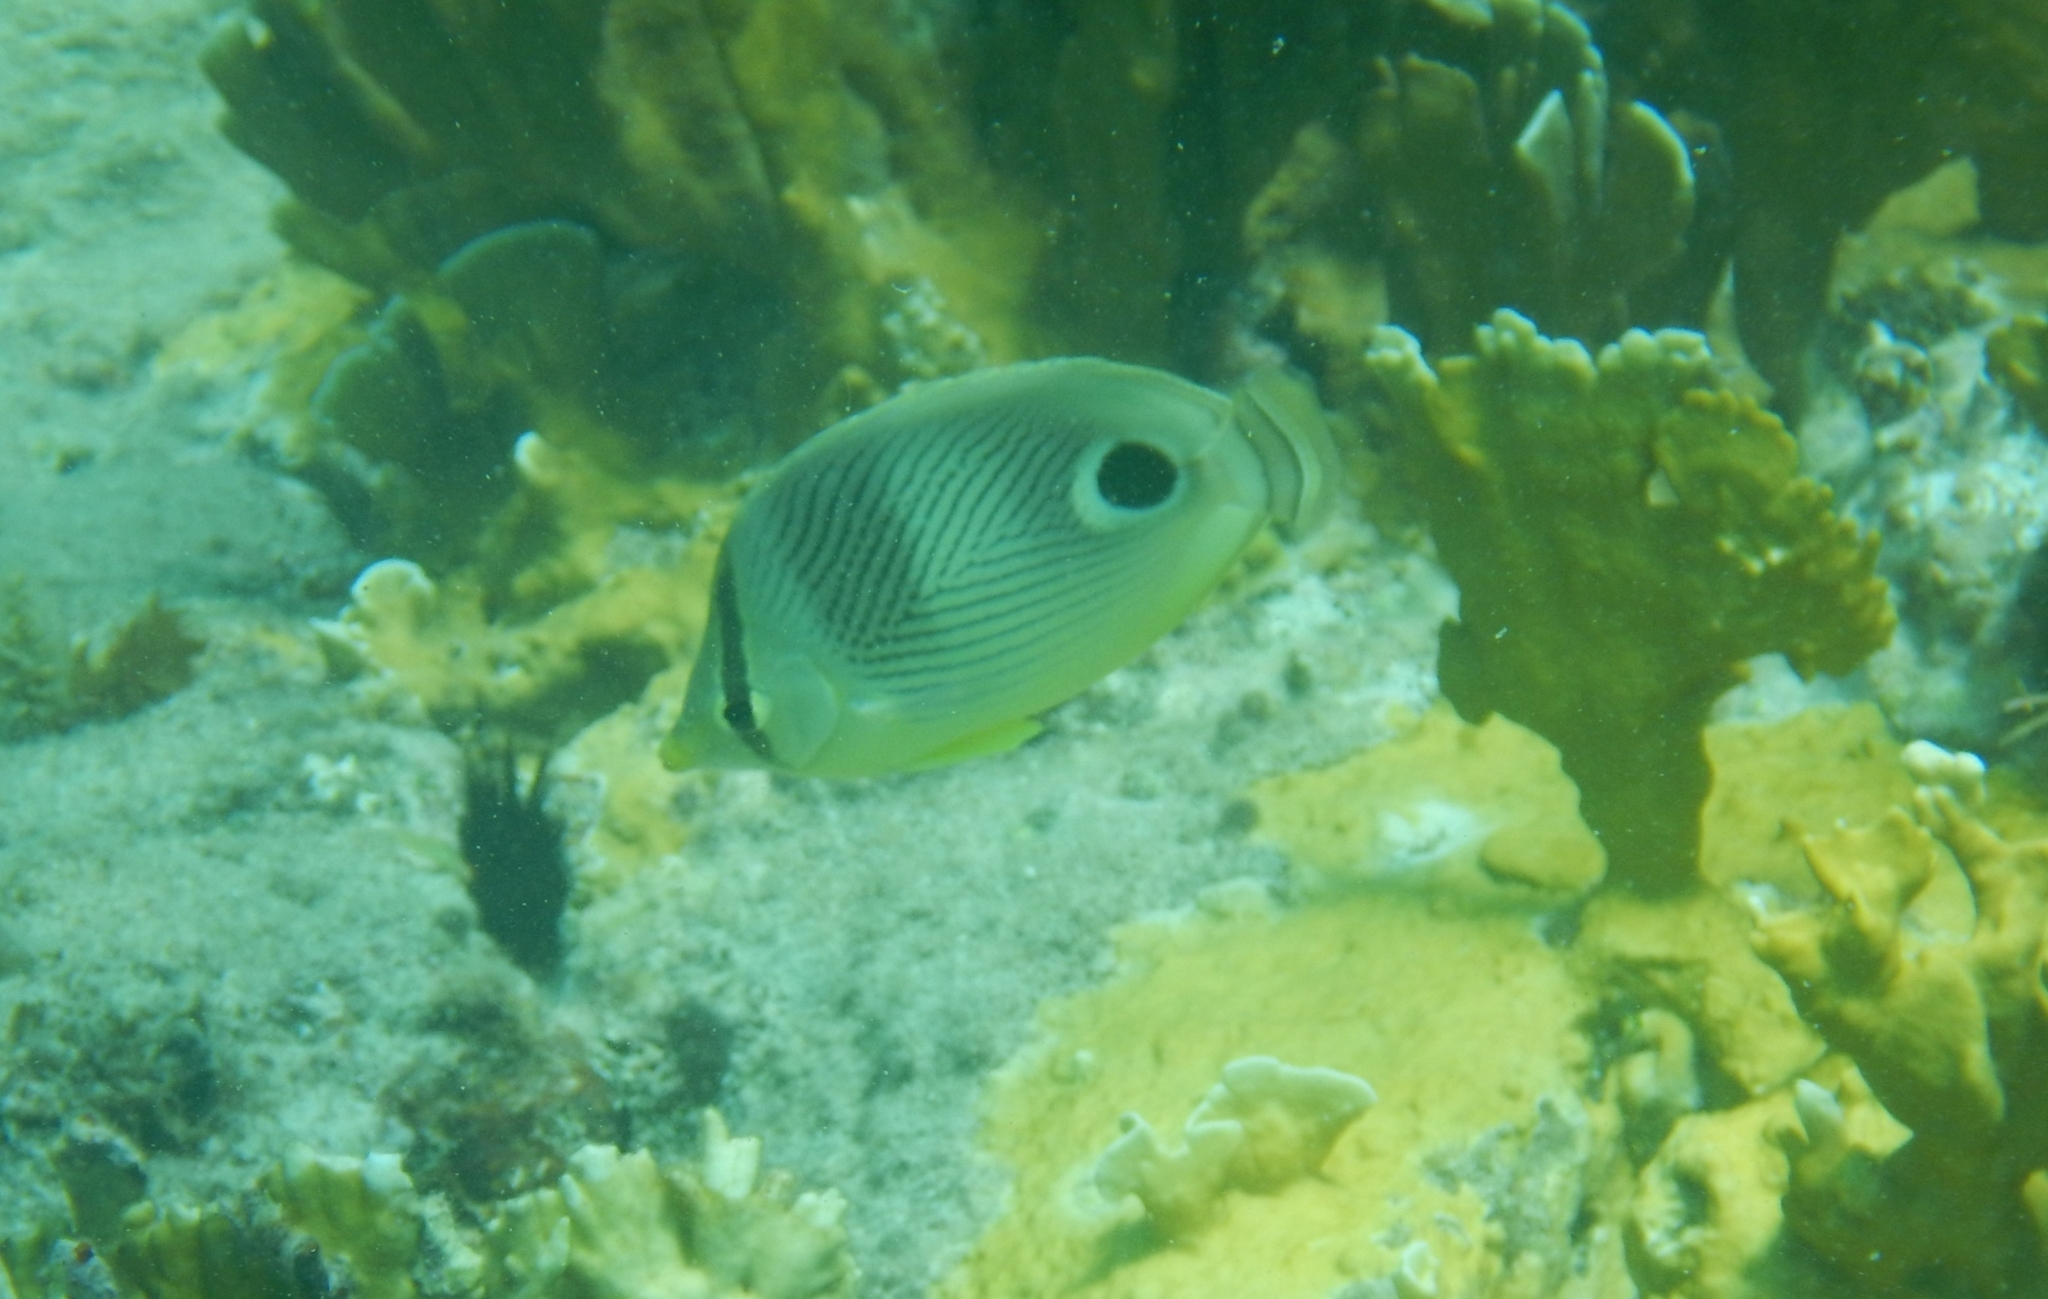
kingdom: Animalia
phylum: Chordata
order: Perciformes
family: Chaetodontidae
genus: Chaetodon
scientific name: Chaetodon capistratus
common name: Kete
